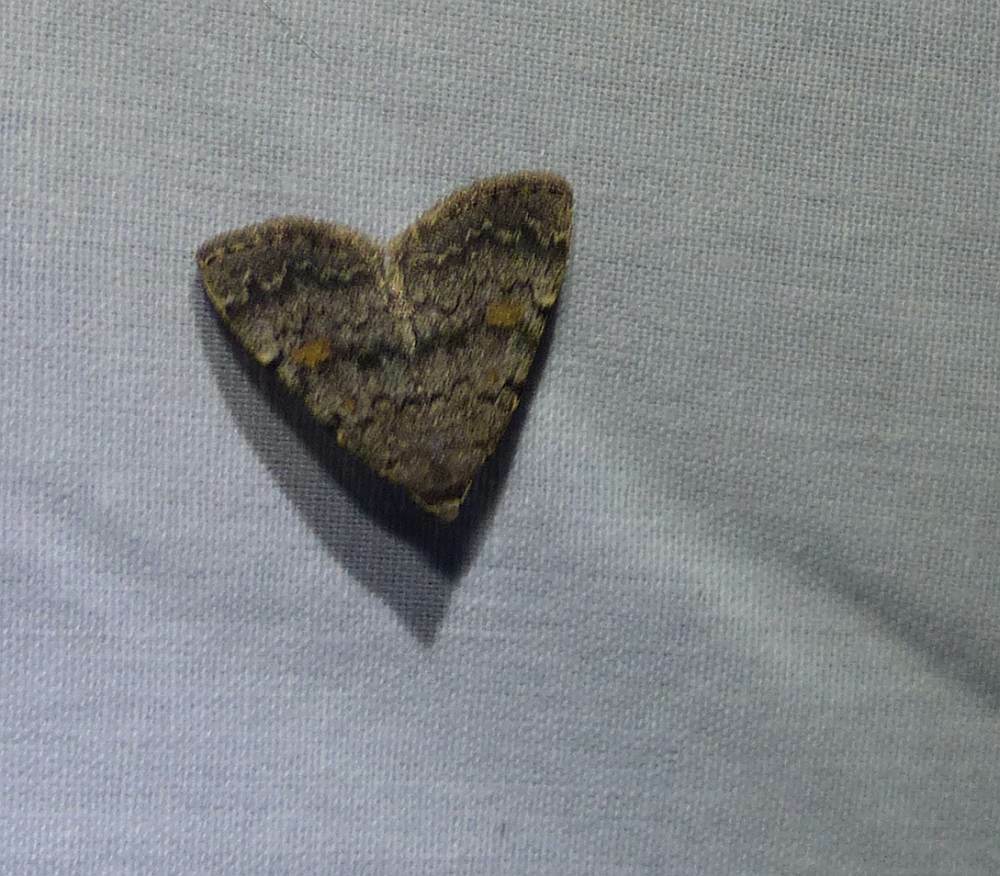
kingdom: Animalia
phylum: Arthropoda
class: Insecta
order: Lepidoptera
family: Erebidae
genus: Idia
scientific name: Idia aemula
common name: Common idia moth
